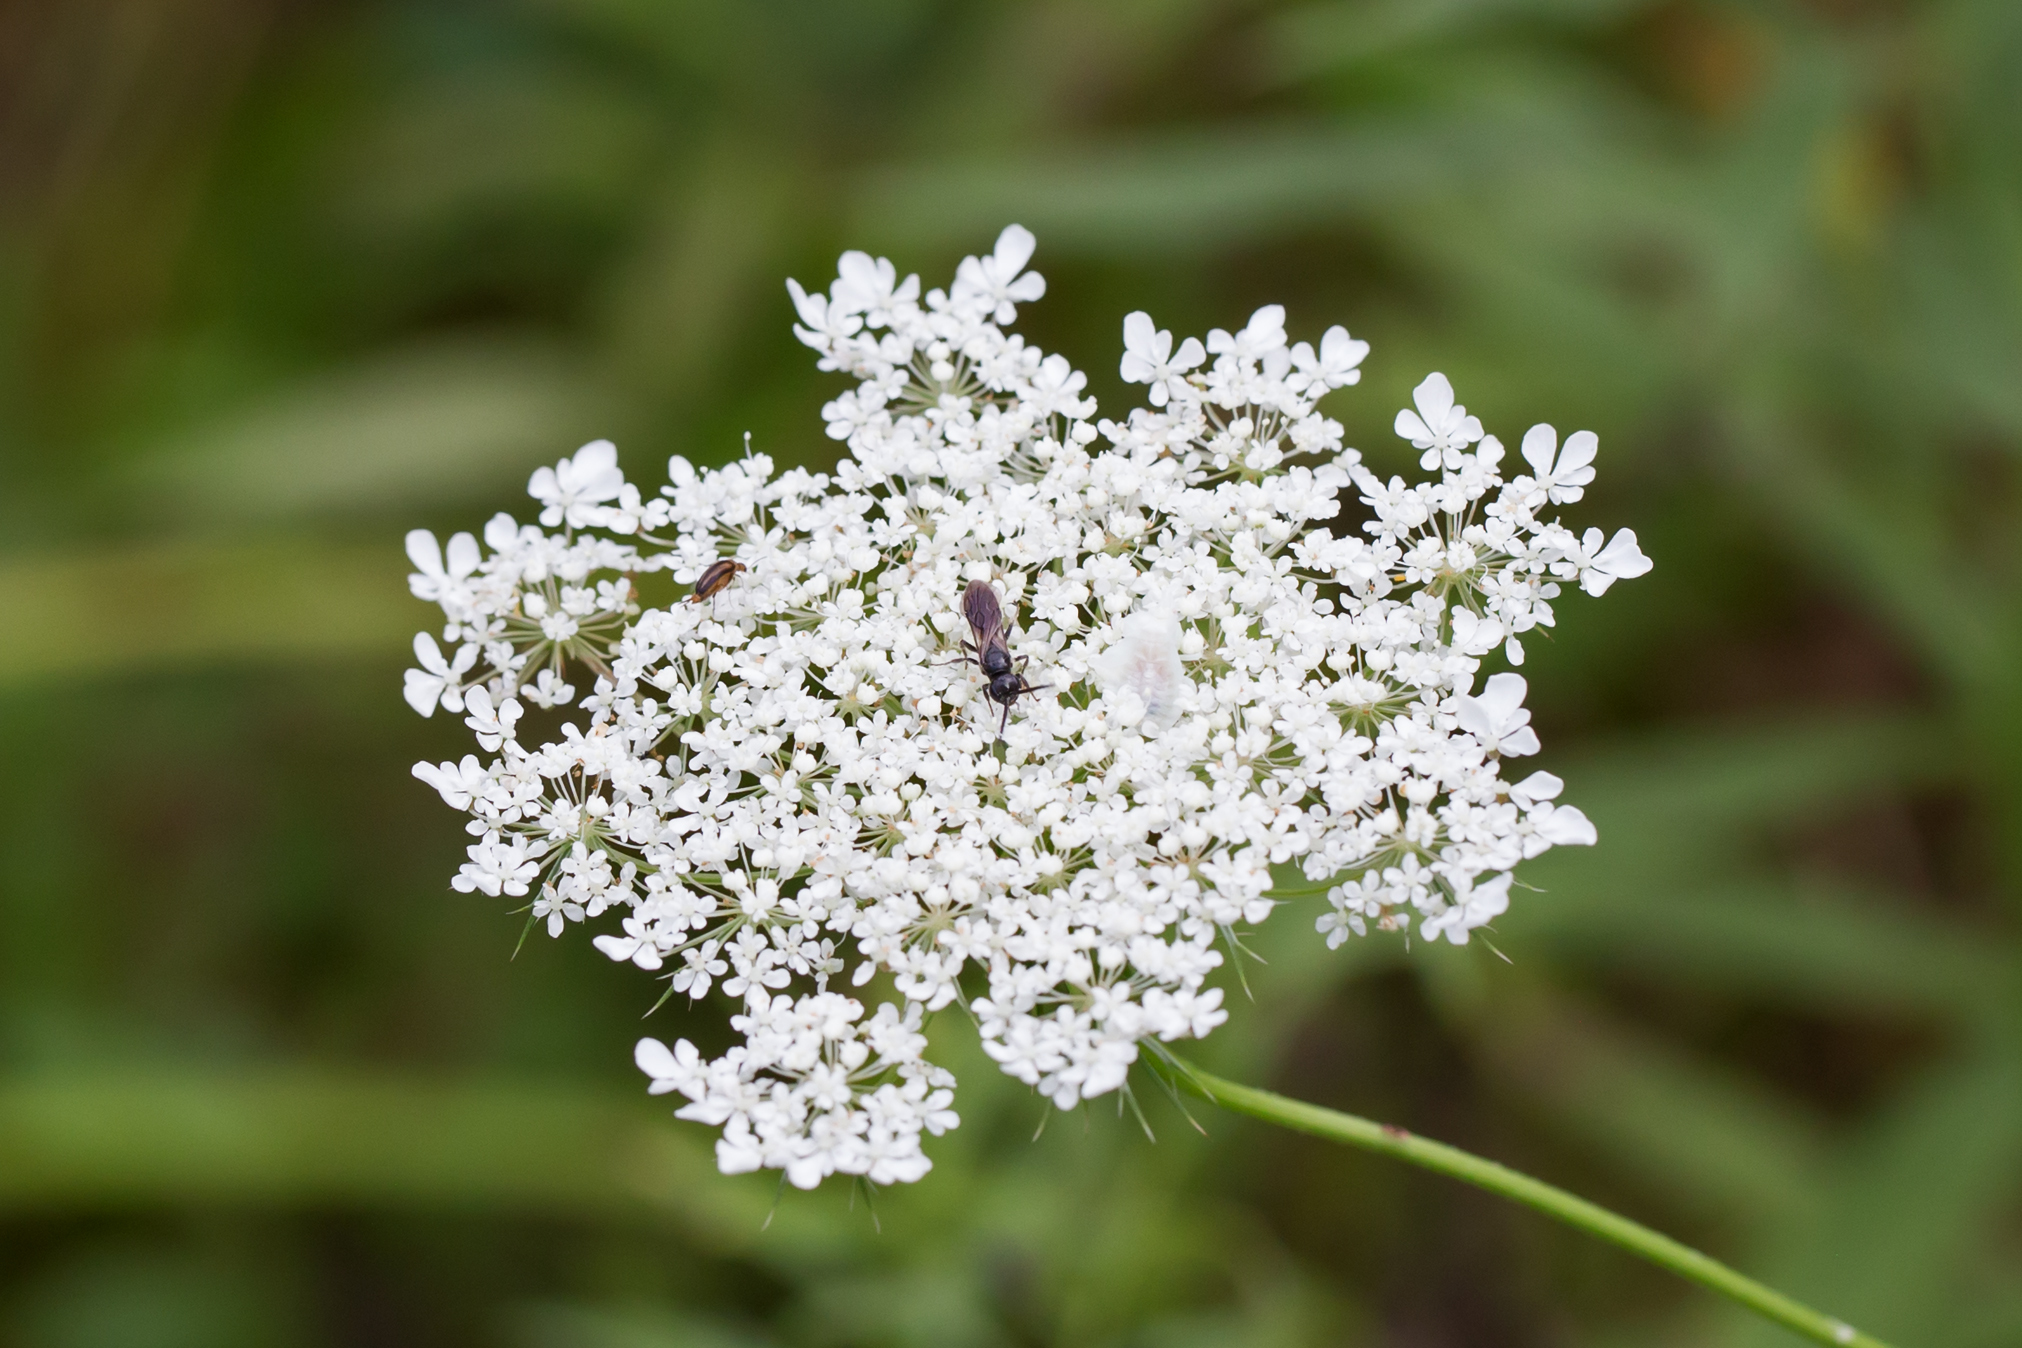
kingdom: Plantae
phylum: Tracheophyta
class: Magnoliopsida
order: Apiales
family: Apiaceae
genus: Daucus
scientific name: Daucus carota
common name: Wild carrot
